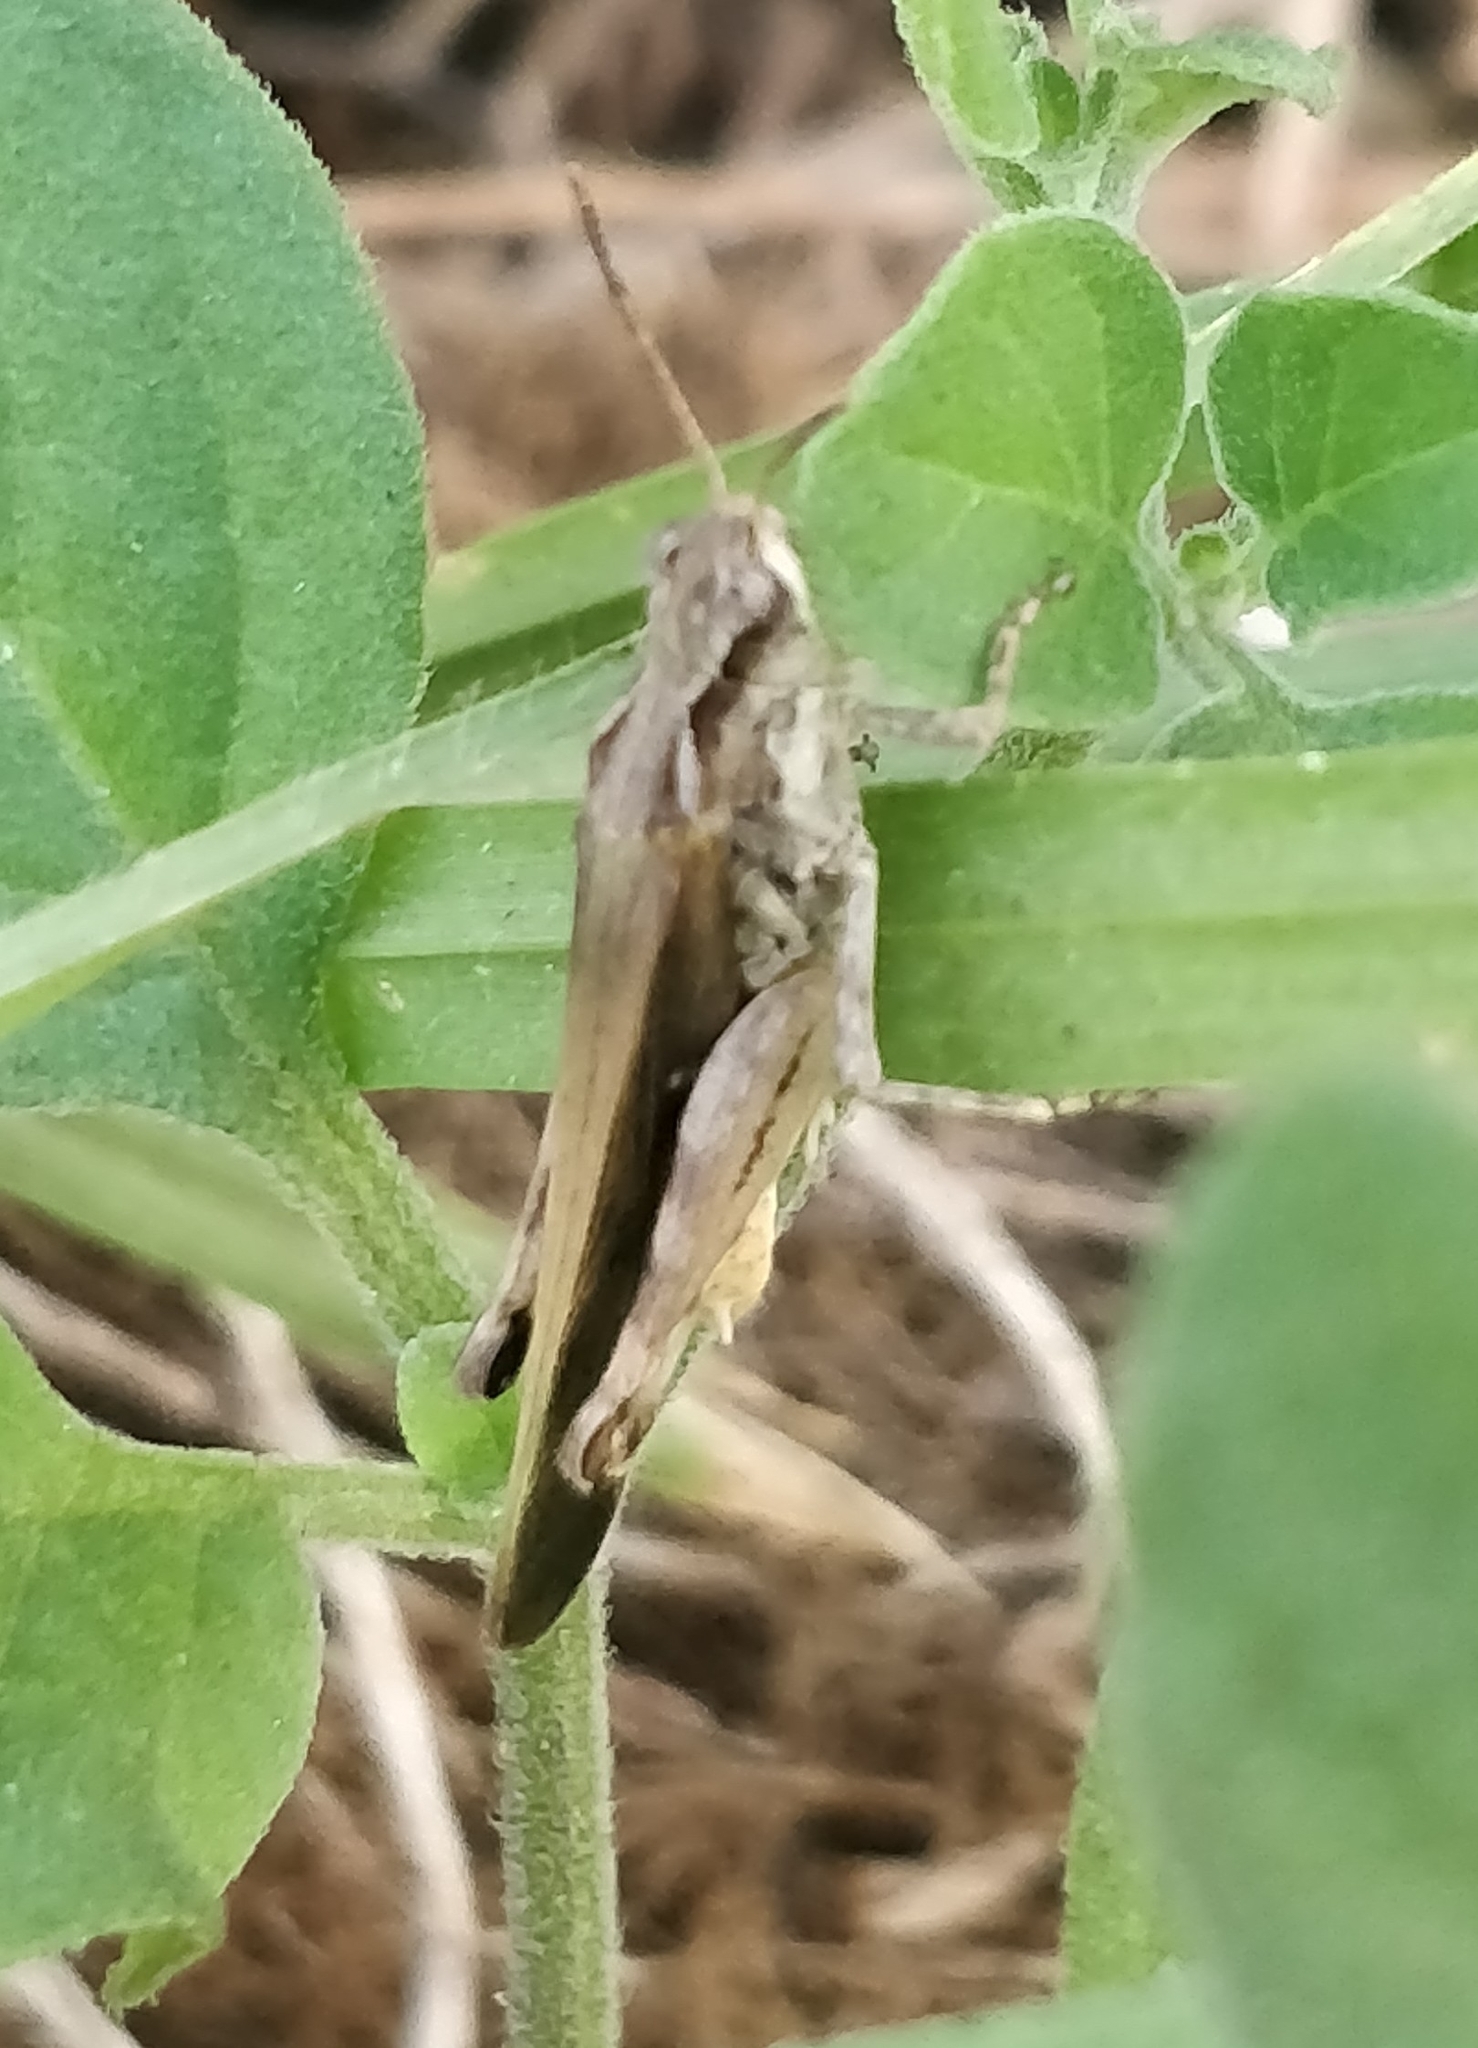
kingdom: Animalia
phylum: Arthropoda
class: Insecta
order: Orthoptera
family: Acrididae
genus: Aiolopus
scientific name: Aiolopus thalassinus
